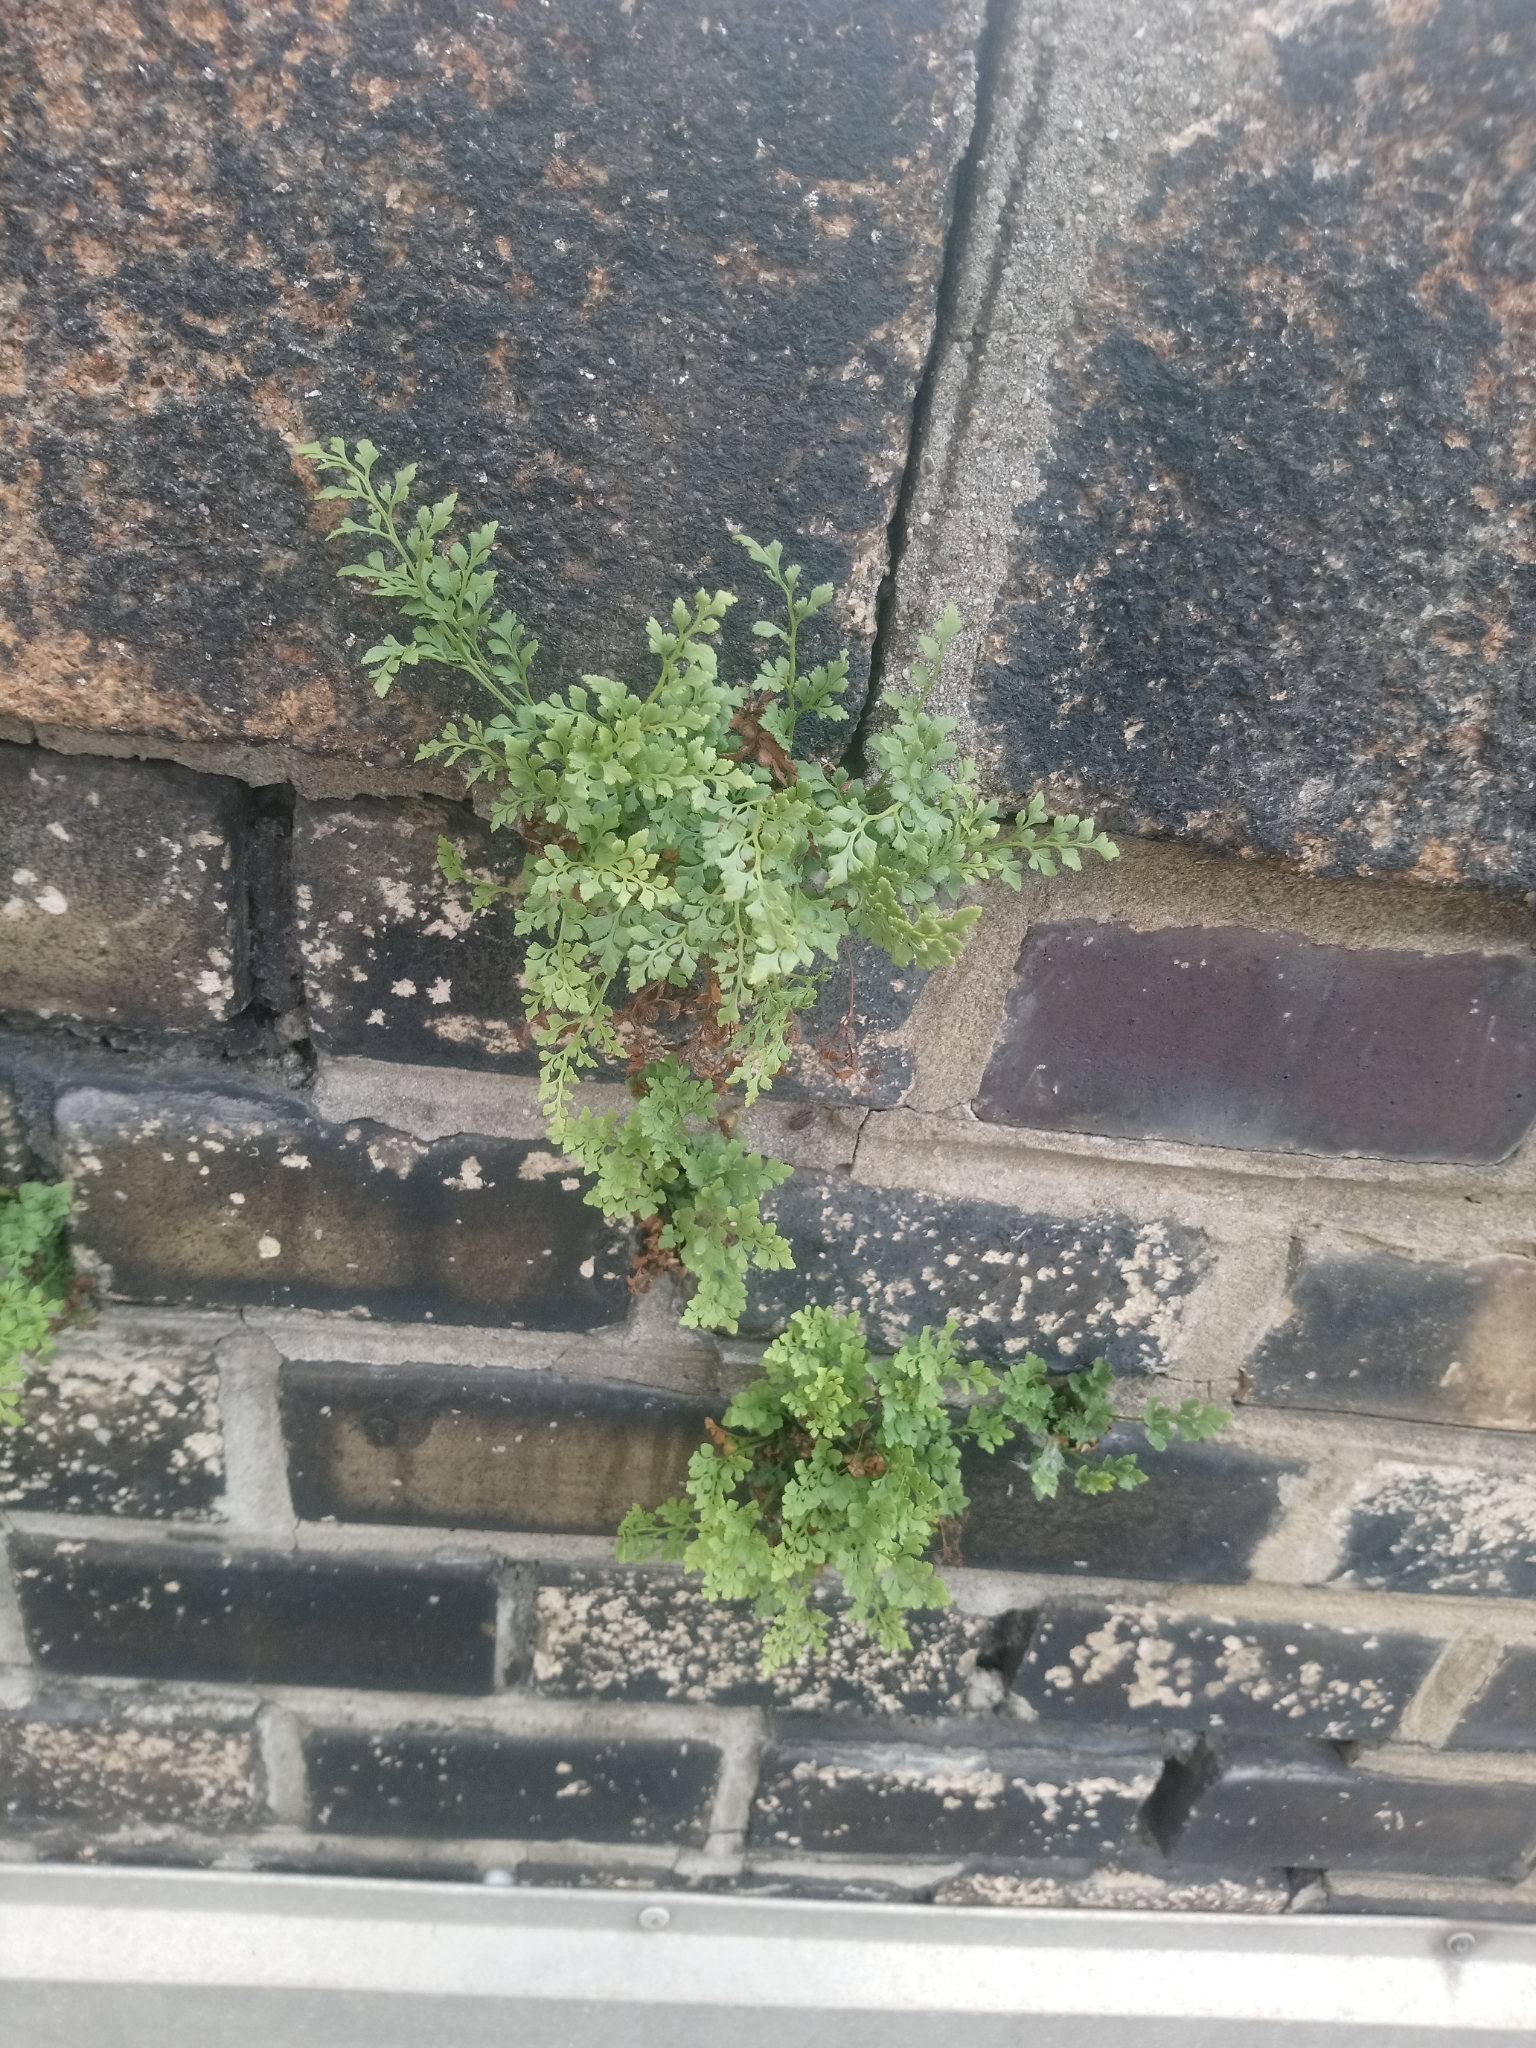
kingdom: Plantae
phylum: Tracheophyta
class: Polypodiopsida
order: Polypodiales
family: Aspleniaceae
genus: Asplenium
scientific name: Asplenium ruta-muraria
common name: Wall-rue
